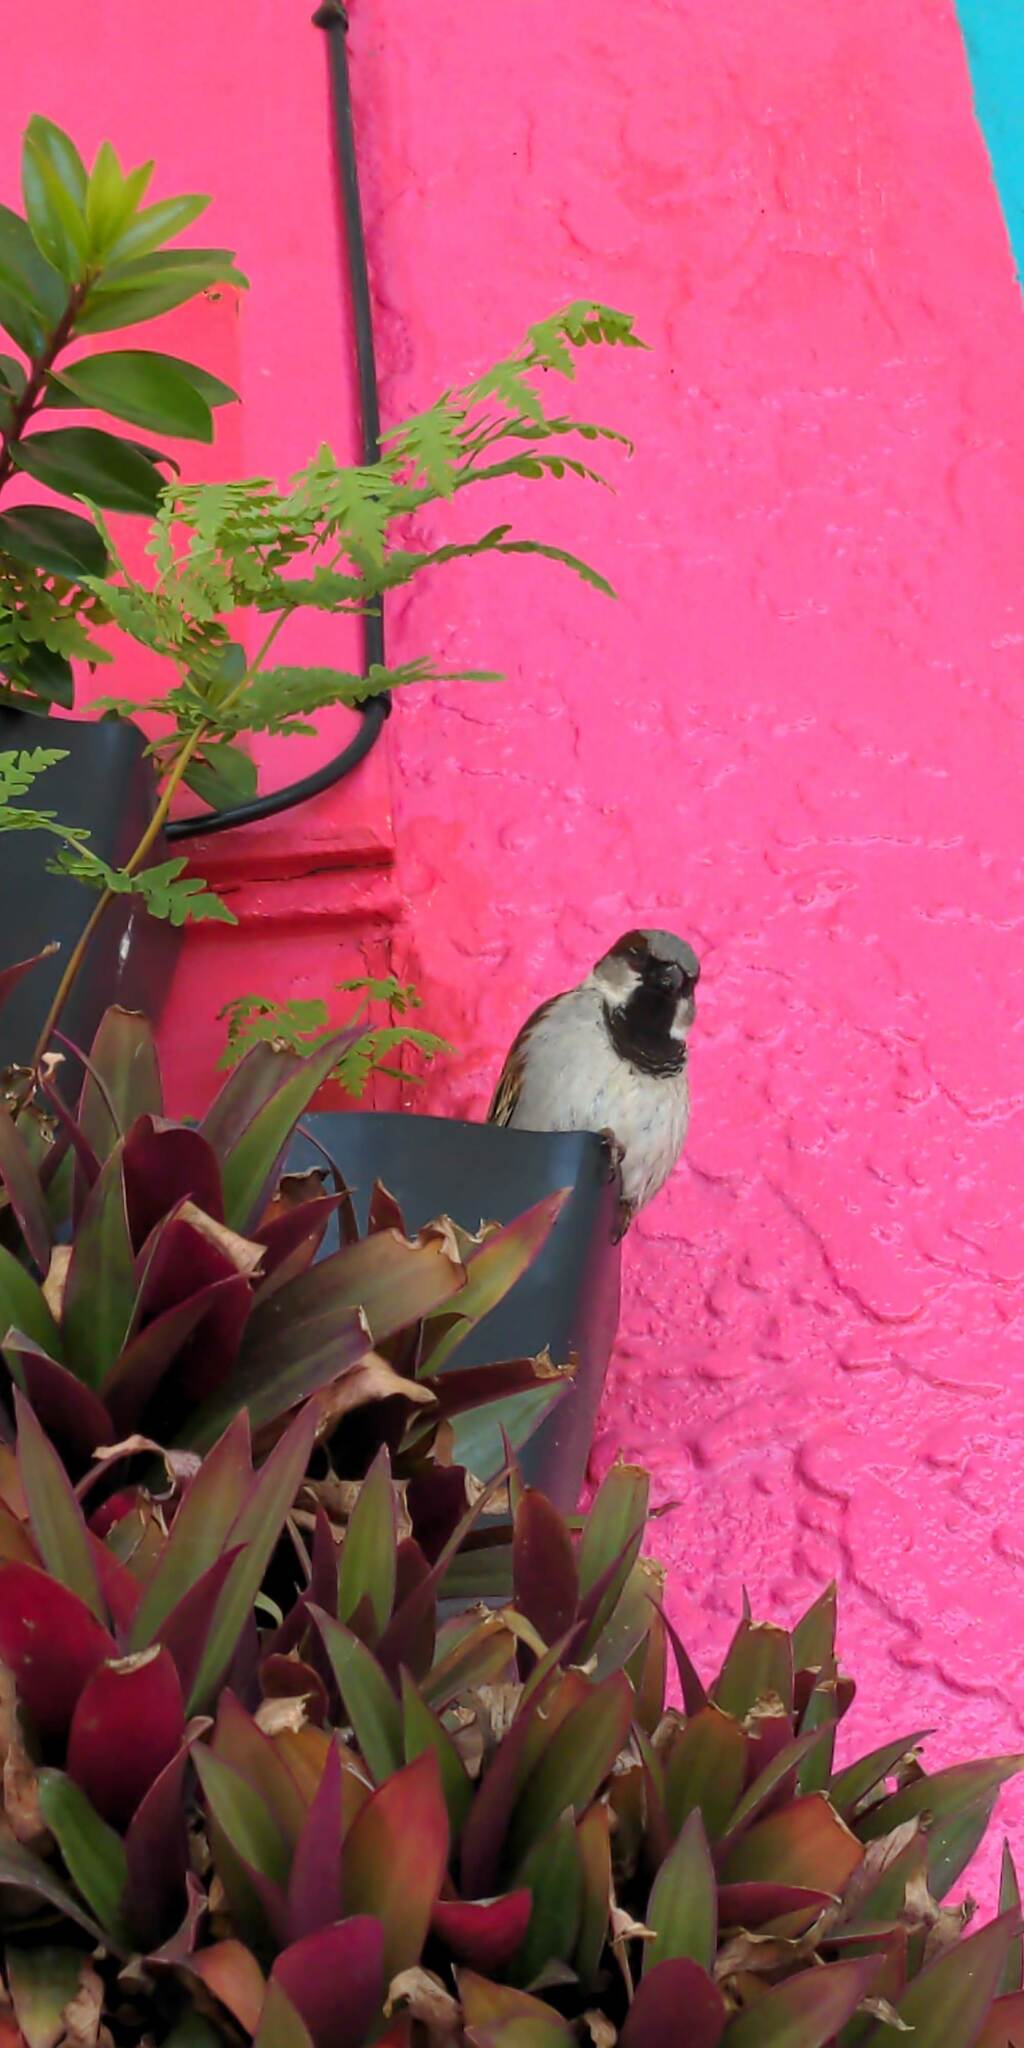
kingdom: Animalia
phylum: Chordata
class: Aves
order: Passeriformes
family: Passeridae
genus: Passer
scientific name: Passer domesticus
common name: House sparrow
